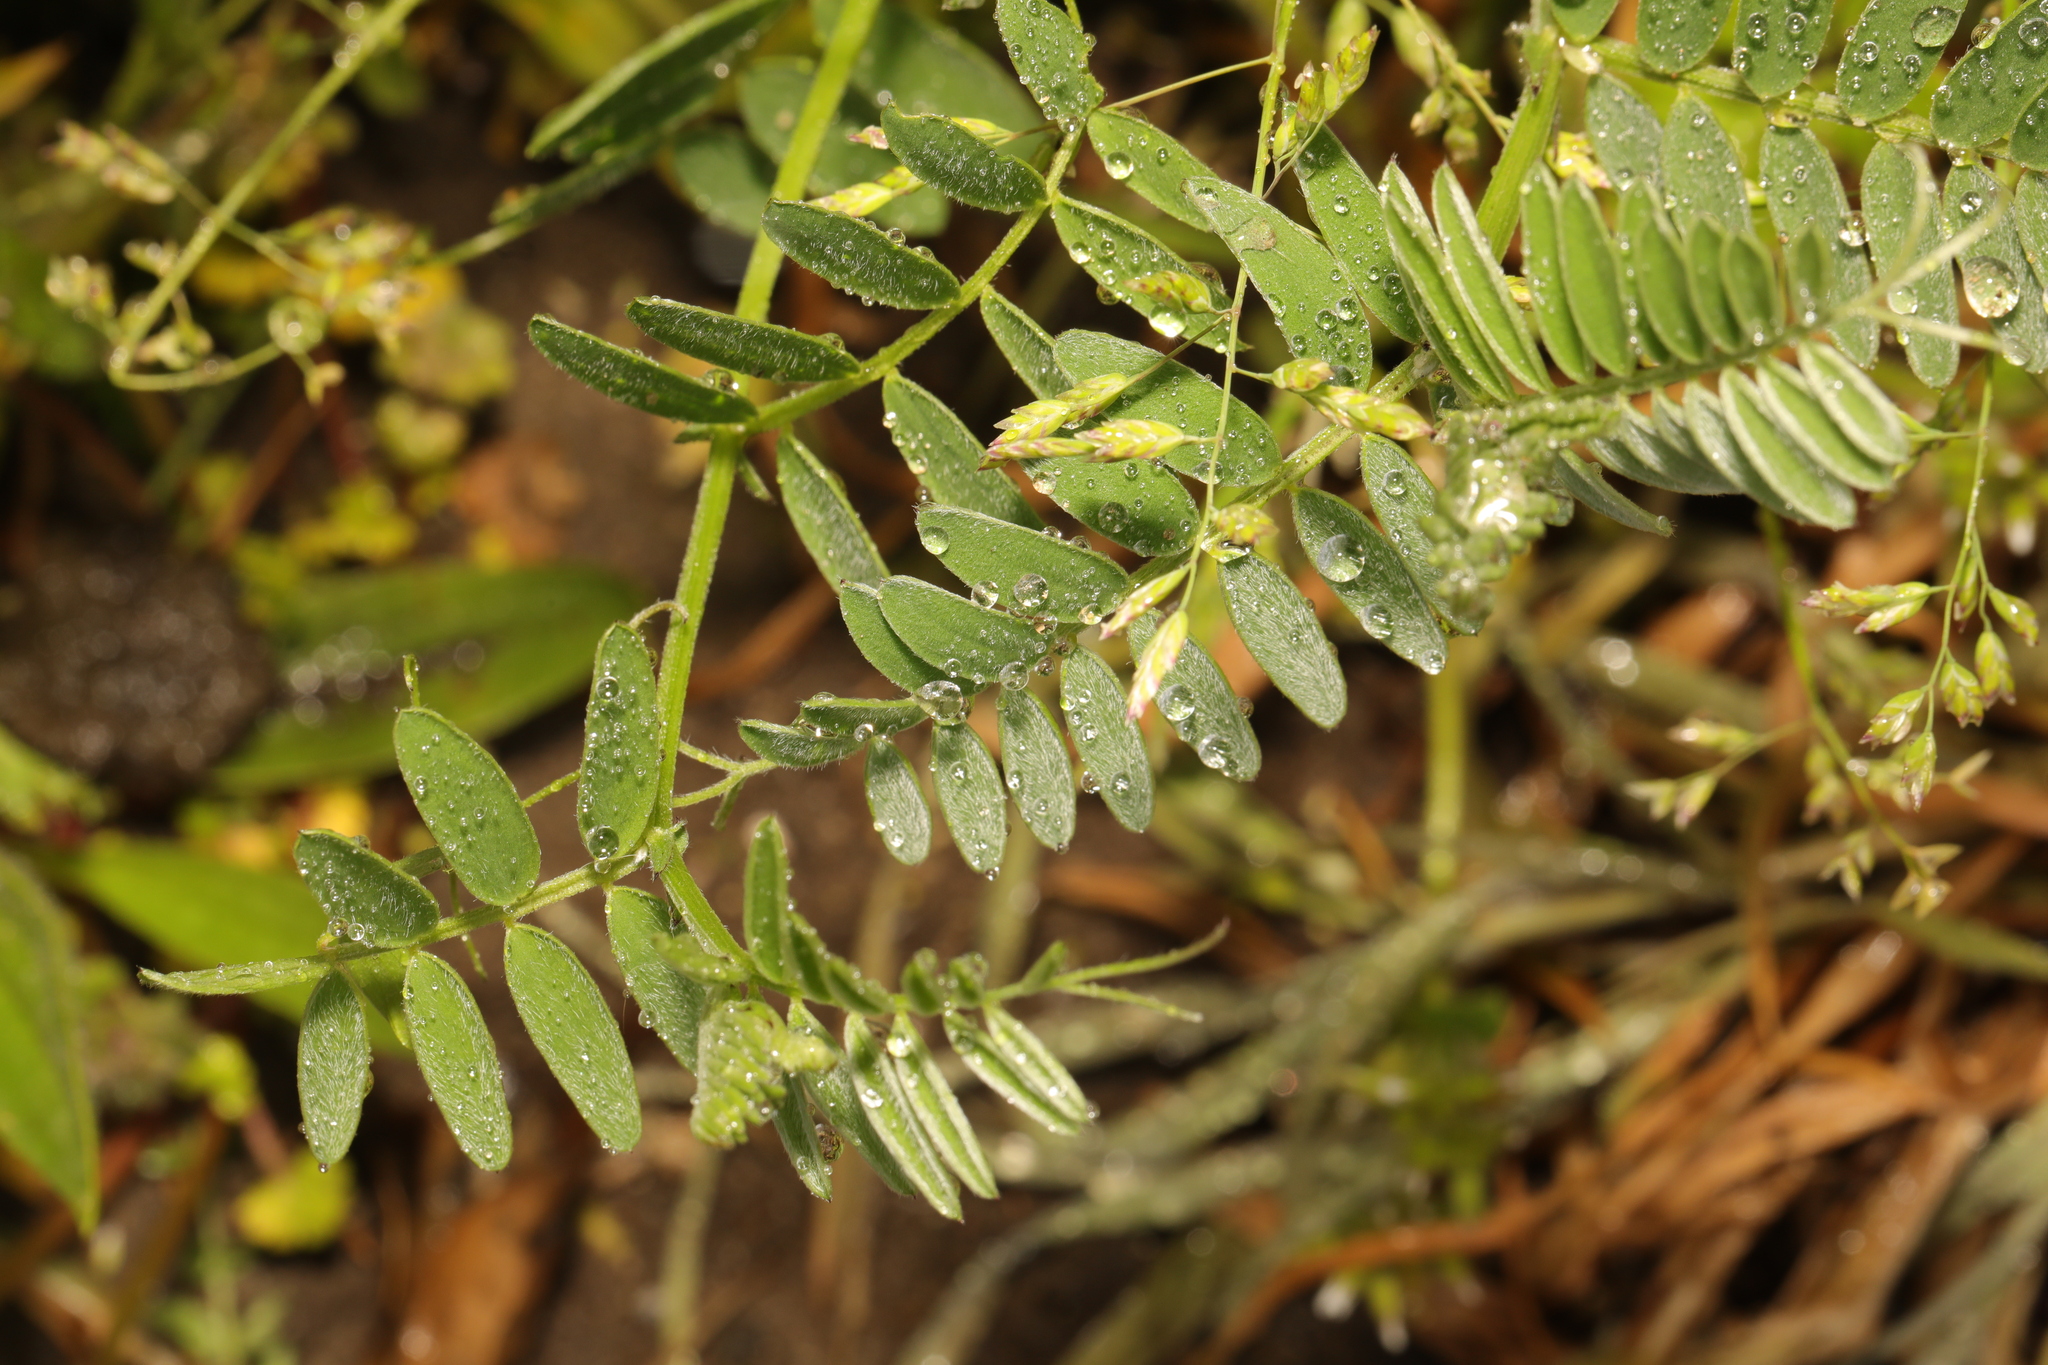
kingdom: Plantae
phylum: Tracheophyta
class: Magnoliopsida
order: Fabales
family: Fabaceae
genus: Vicia
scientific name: Vicia cracca
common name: Bird vetch
